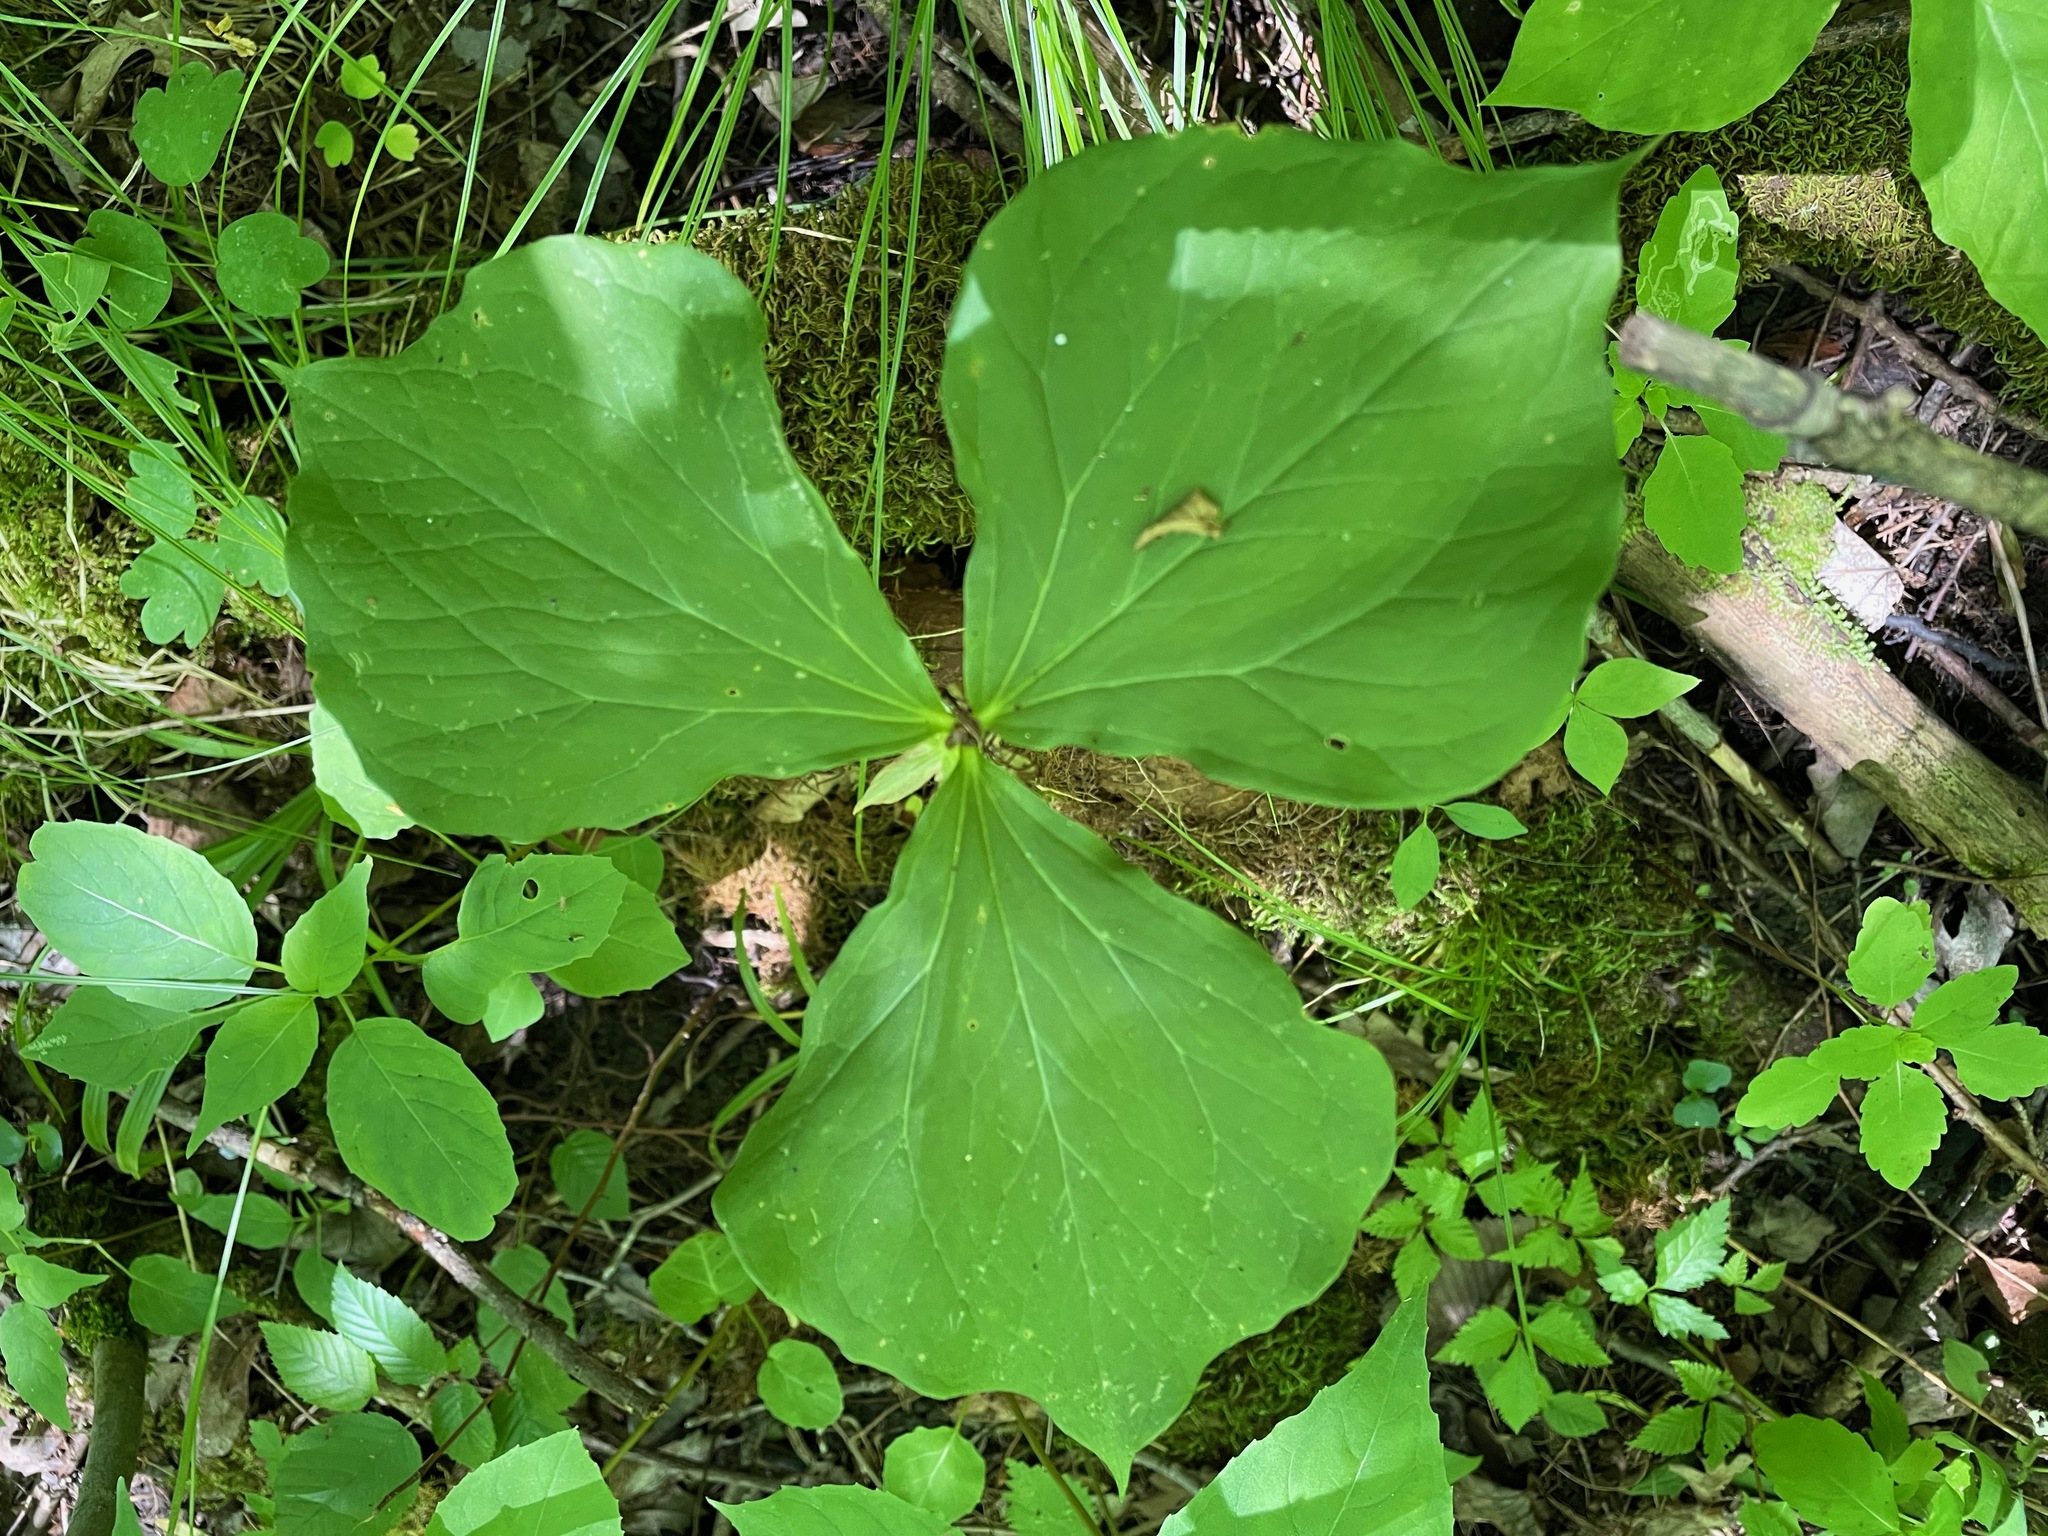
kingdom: Plantae
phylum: Tracheophyta
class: Liliopsida
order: Liliales
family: Melanthiaceae
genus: Trillium
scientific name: Trillium cernuum
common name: Nodding trillium
